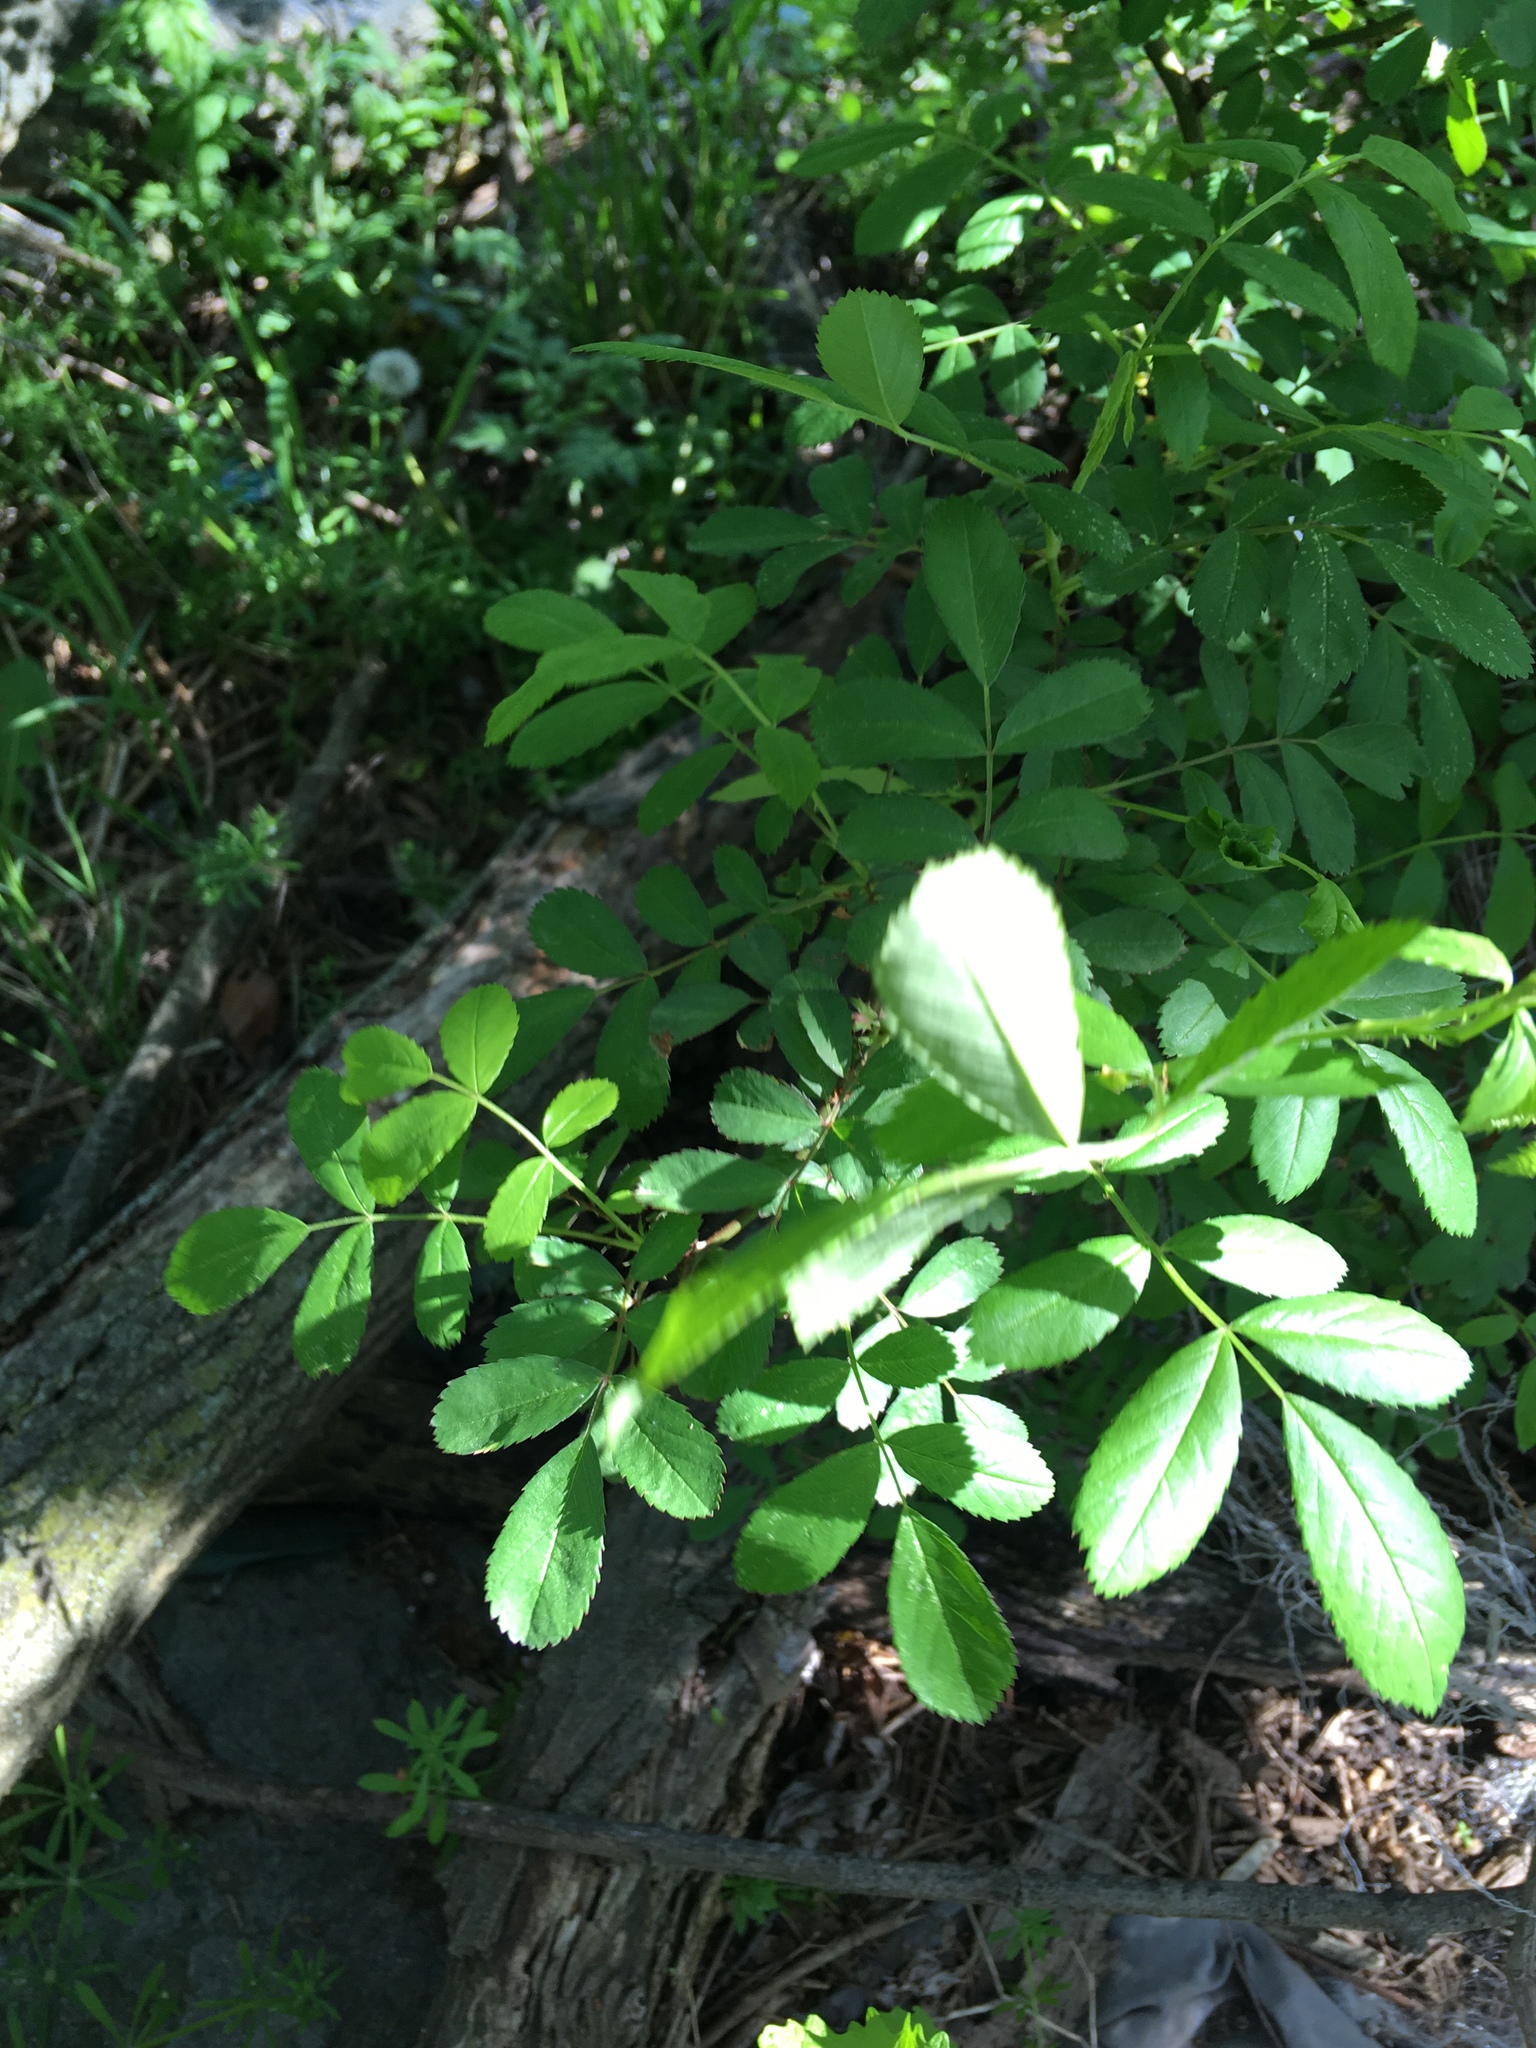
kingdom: Plantae
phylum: Tracheophyta
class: Magnoliopsida
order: Rosales
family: Rosaceae
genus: Rosa
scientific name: Rosa multiflora
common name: Multiflora rose
